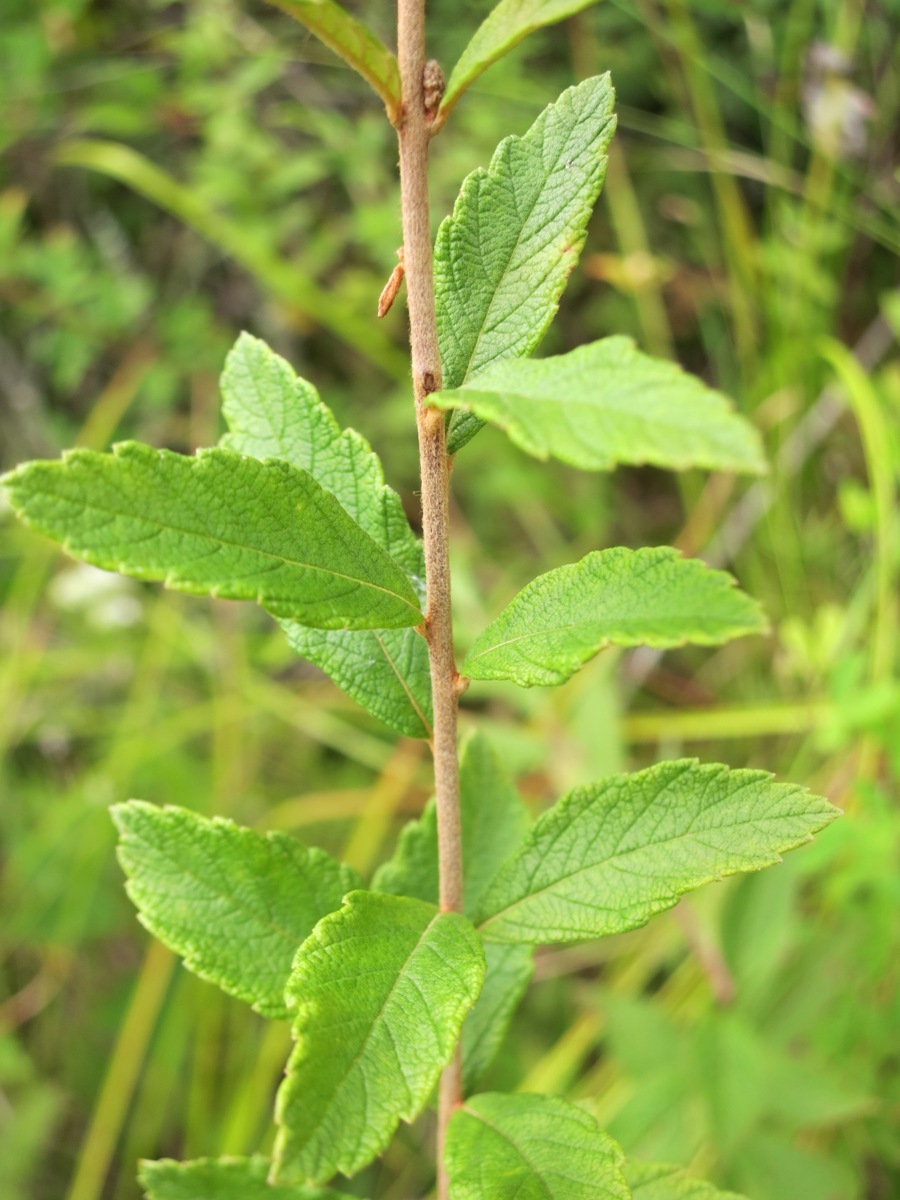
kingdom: Plantae
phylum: Tracheophyta
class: Magnoliopsida
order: Rosales
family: Rosaceae
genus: Spiraea
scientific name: Spiraea tomentosa
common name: Hardhack
